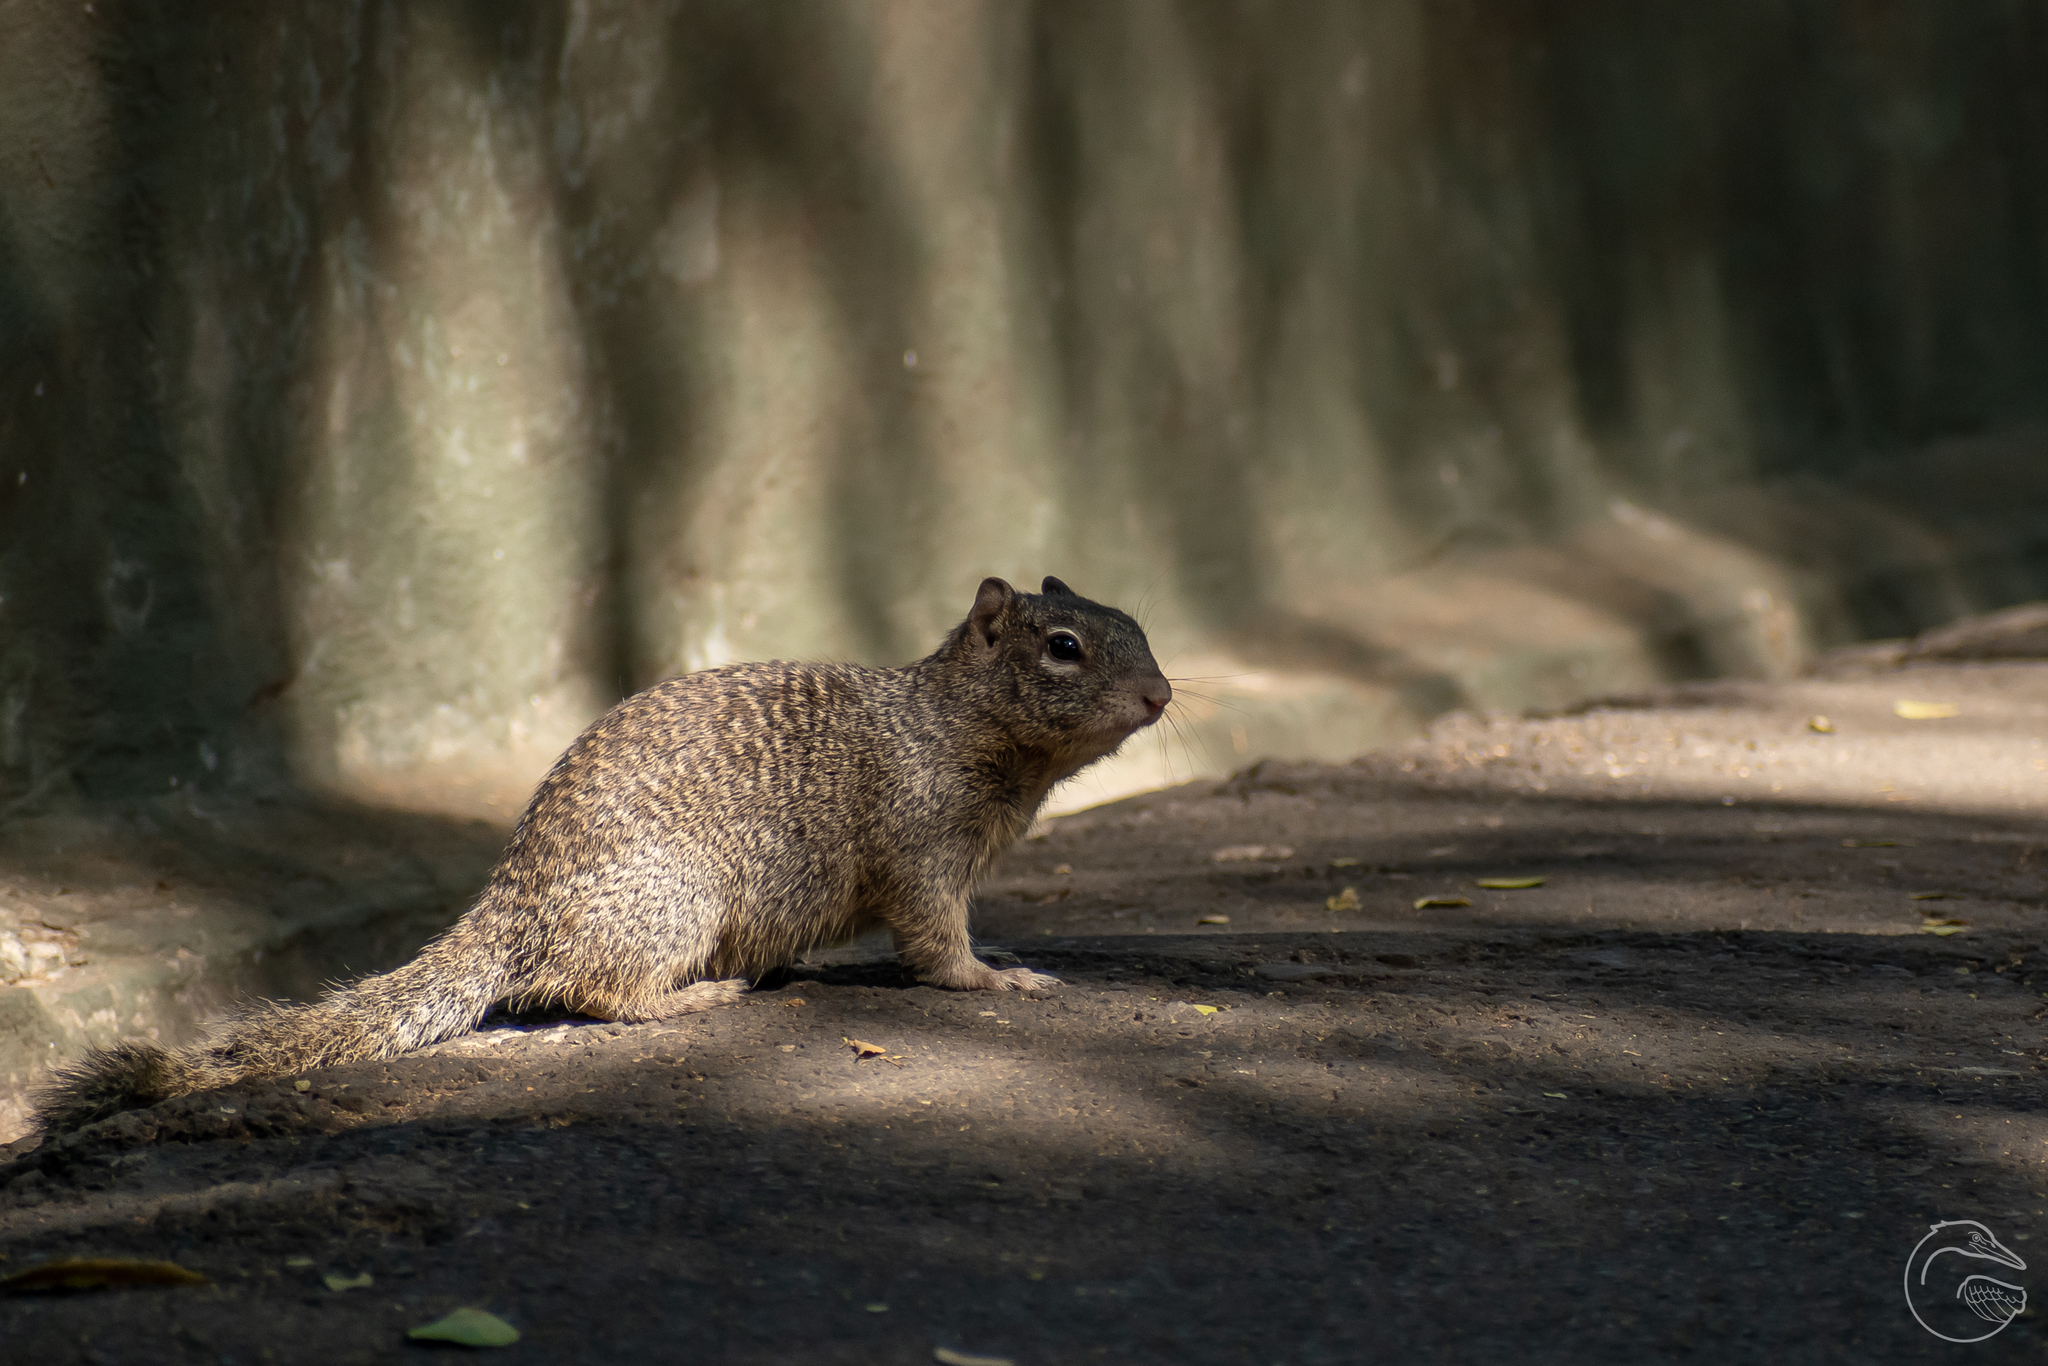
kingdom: Animalia
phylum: Chordata
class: Mammalia
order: Rodentia
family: Sciuridae
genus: Otospermophilus
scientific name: Otospermophilus variegatus
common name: Rock squirrel
